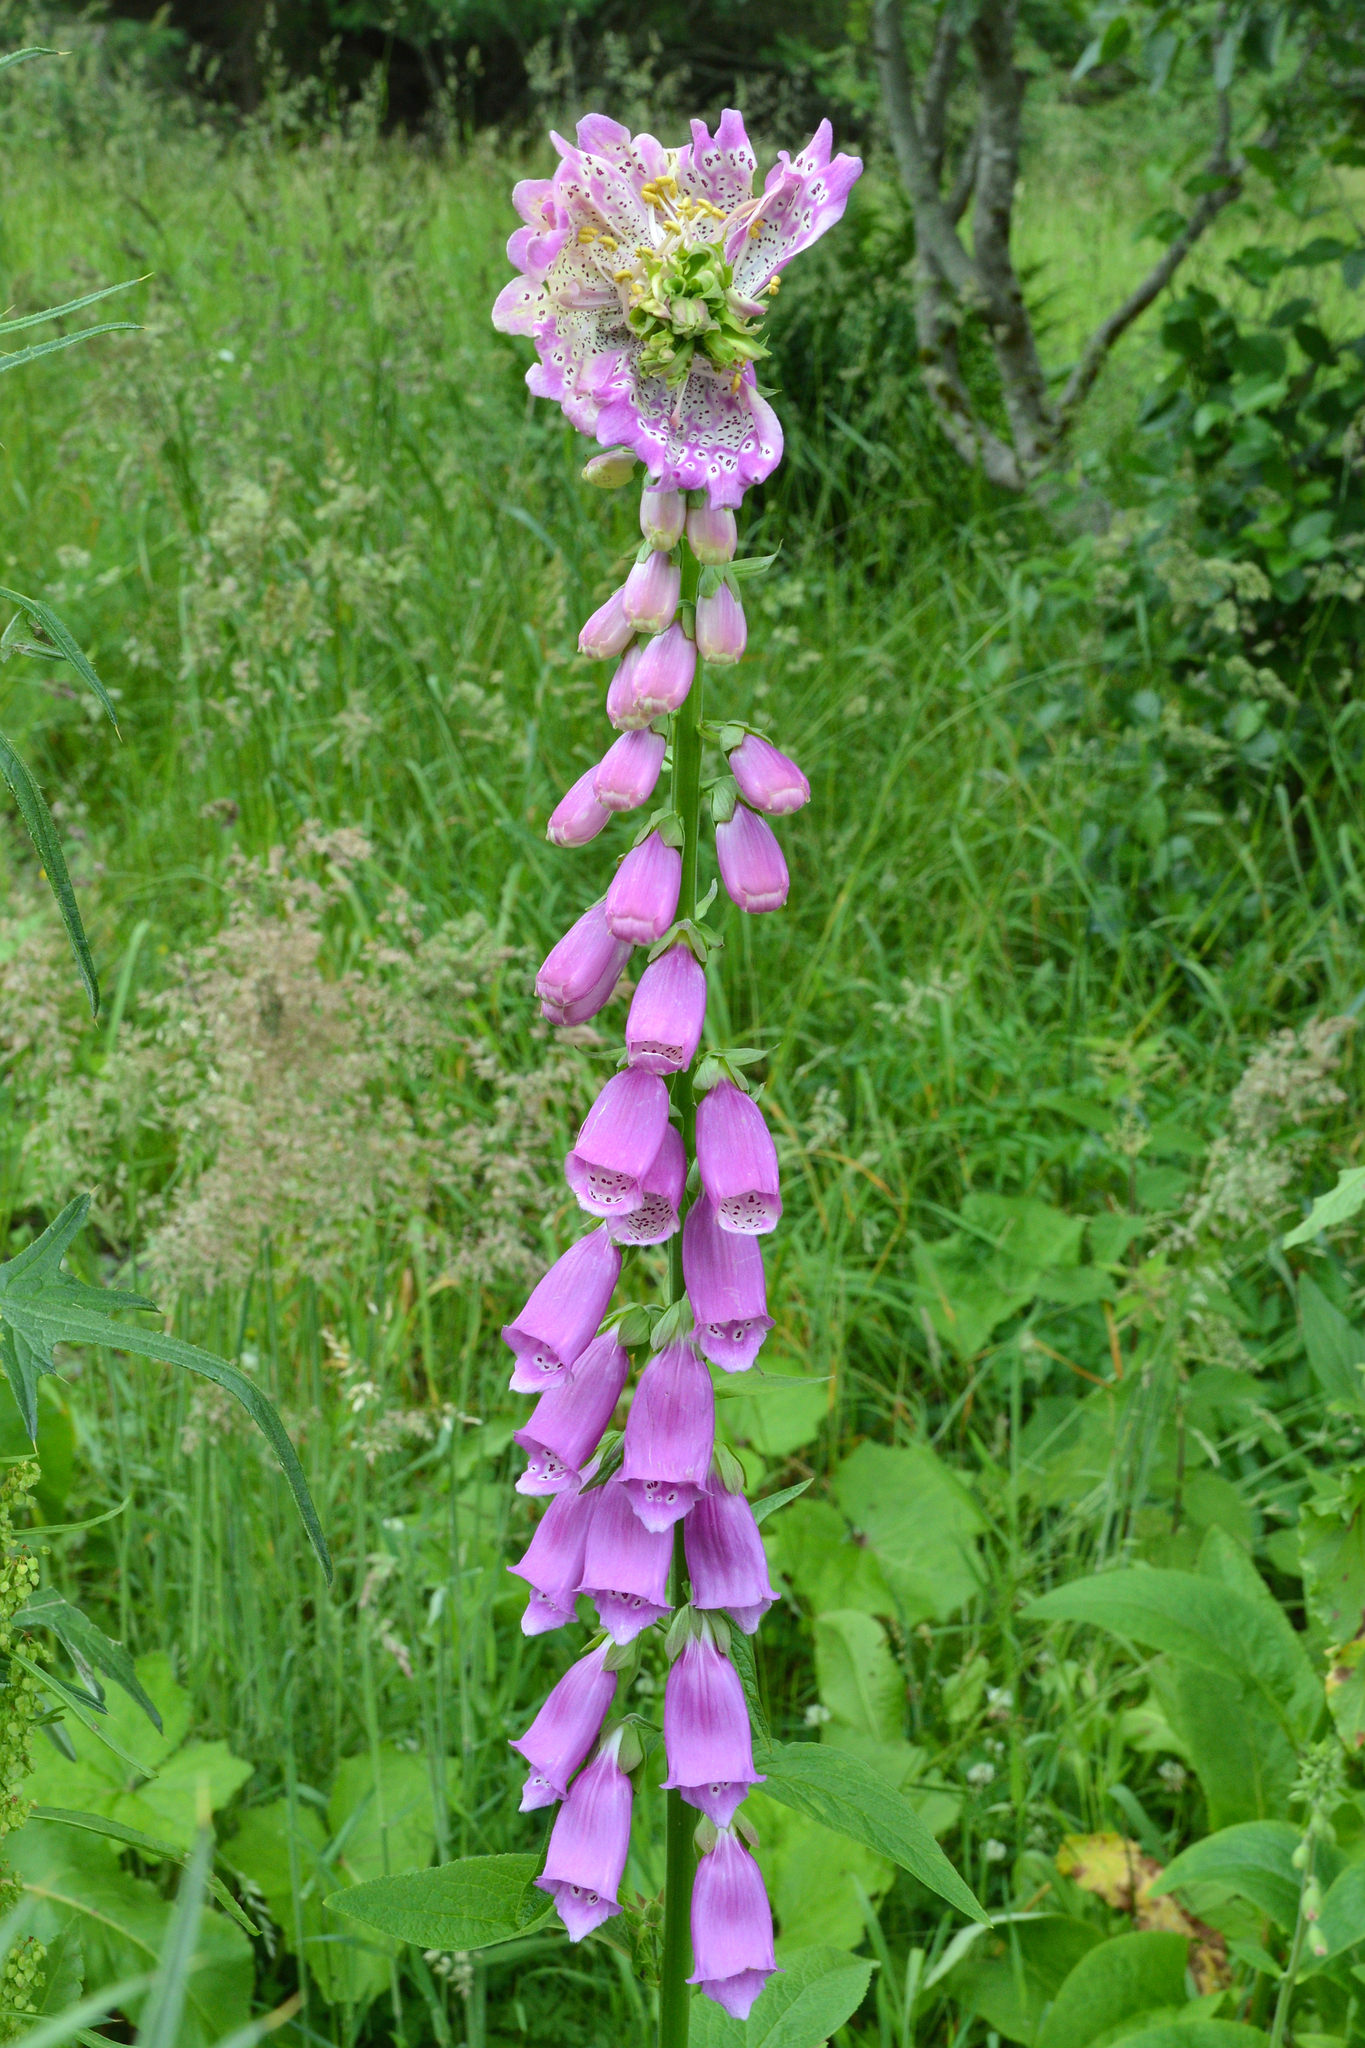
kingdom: Plantae
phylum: Tracheophyta
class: Magnoliopsida
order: Lamiales
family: Plantaginaceae
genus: Digitalis
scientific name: Digitalis purpurea
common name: Foxglove
